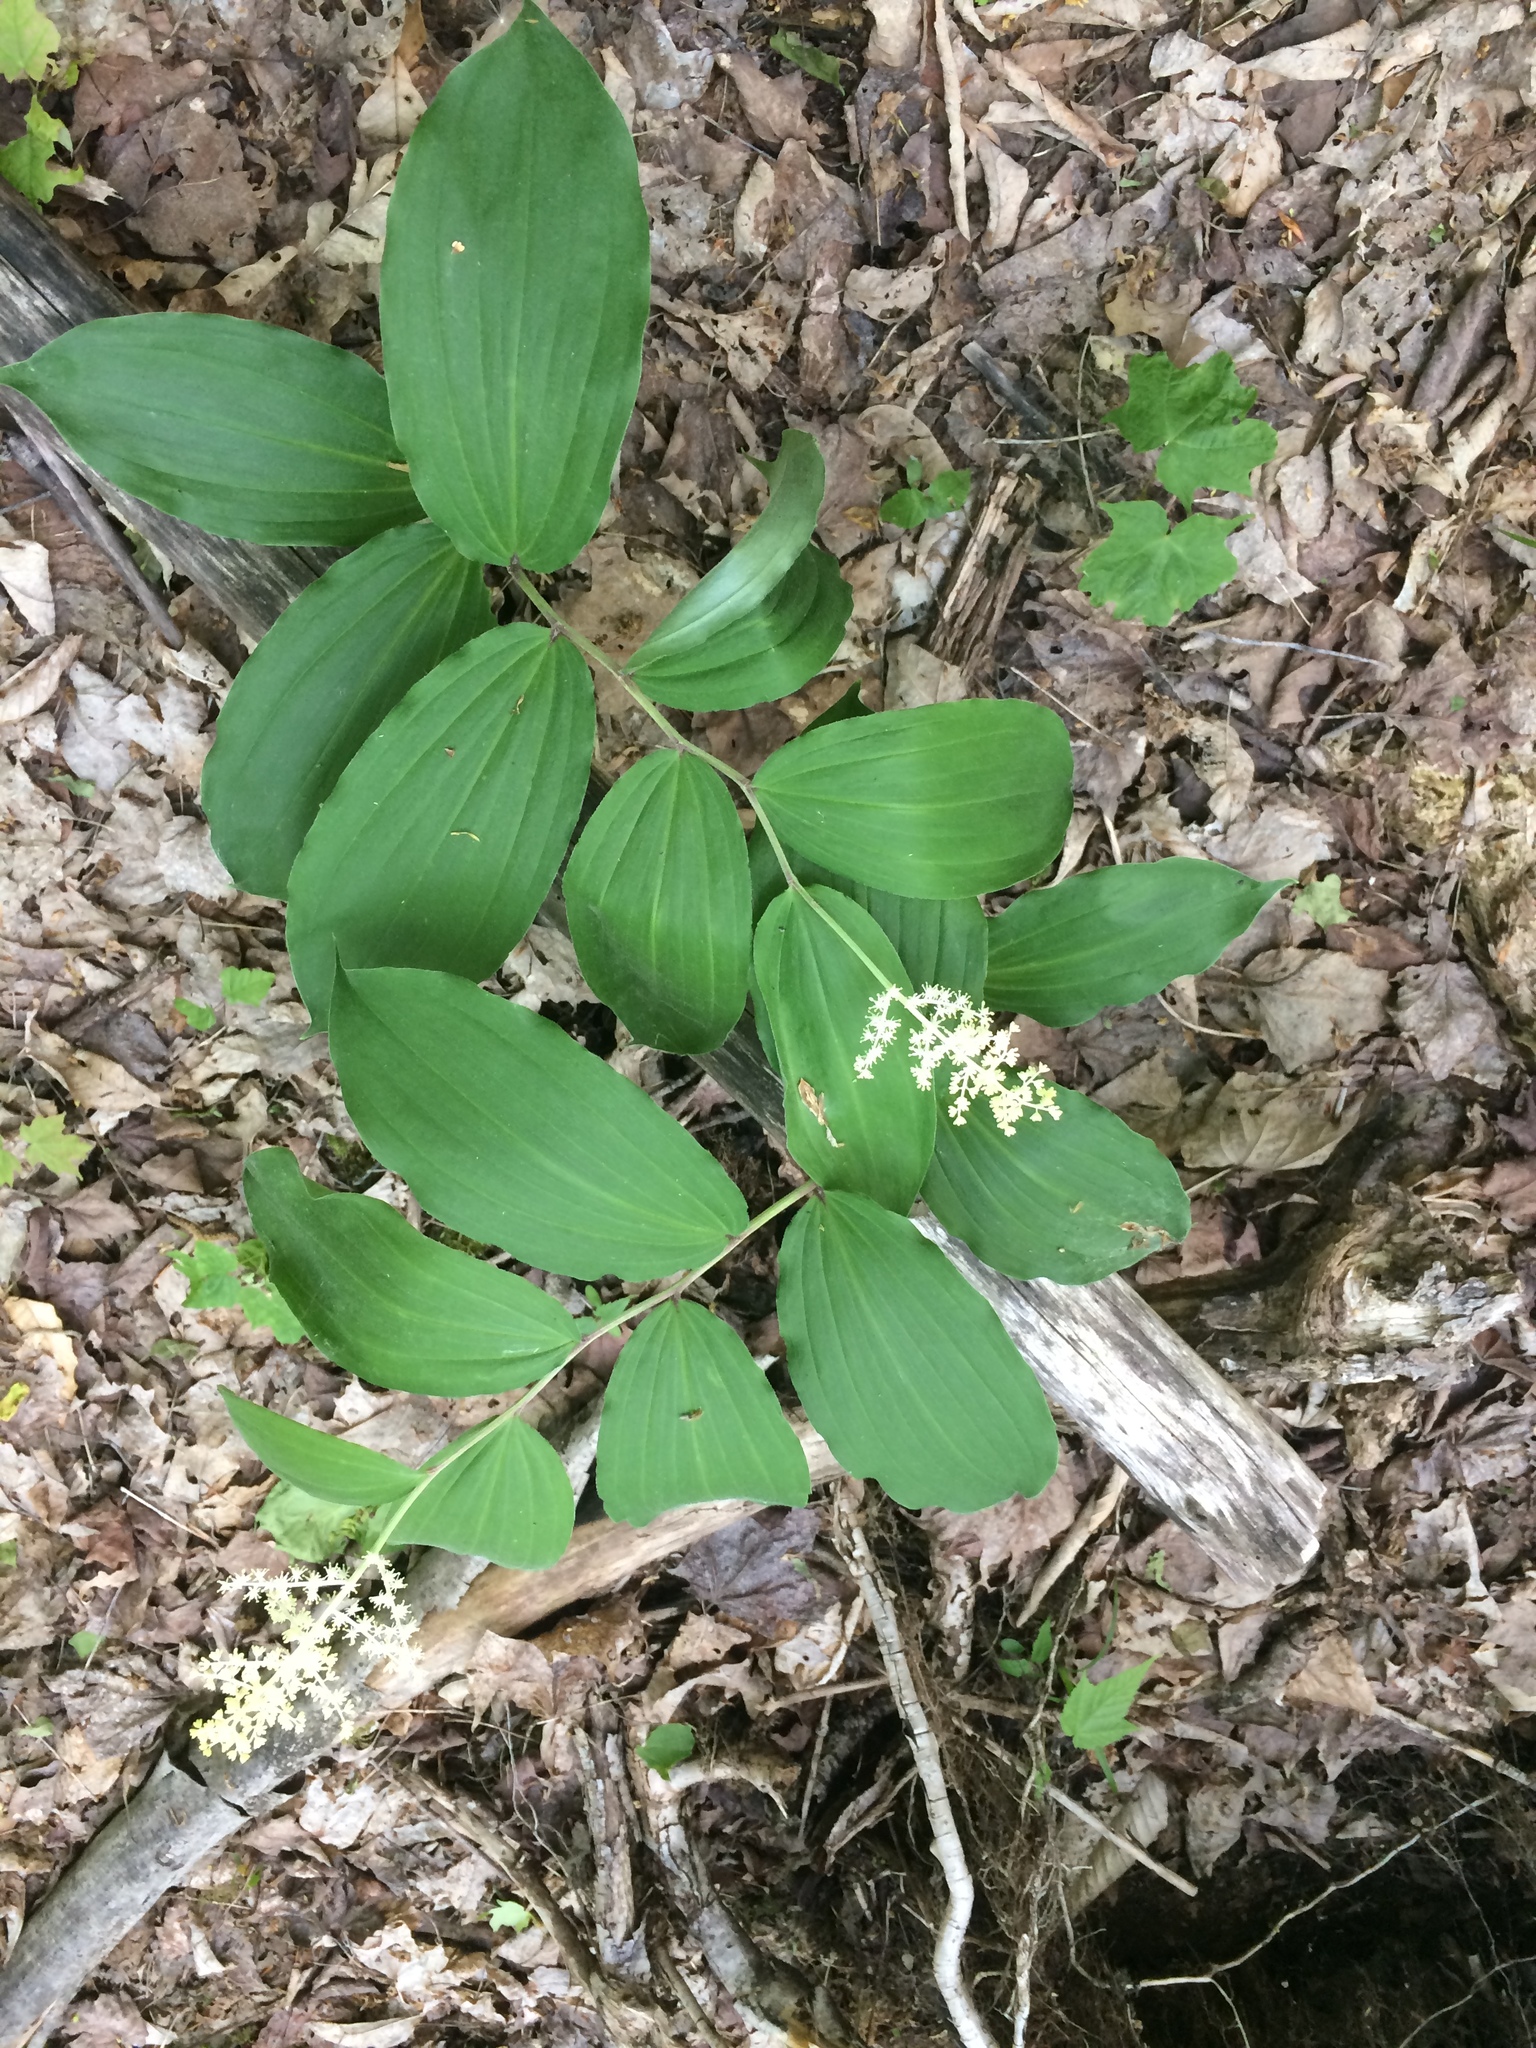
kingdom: Plantae
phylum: Tracheophyta
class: Liliopsida
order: Asparagales
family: Asparagaceae
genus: Maianthemum
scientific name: Maianthemum racemosum
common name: False spikenard
